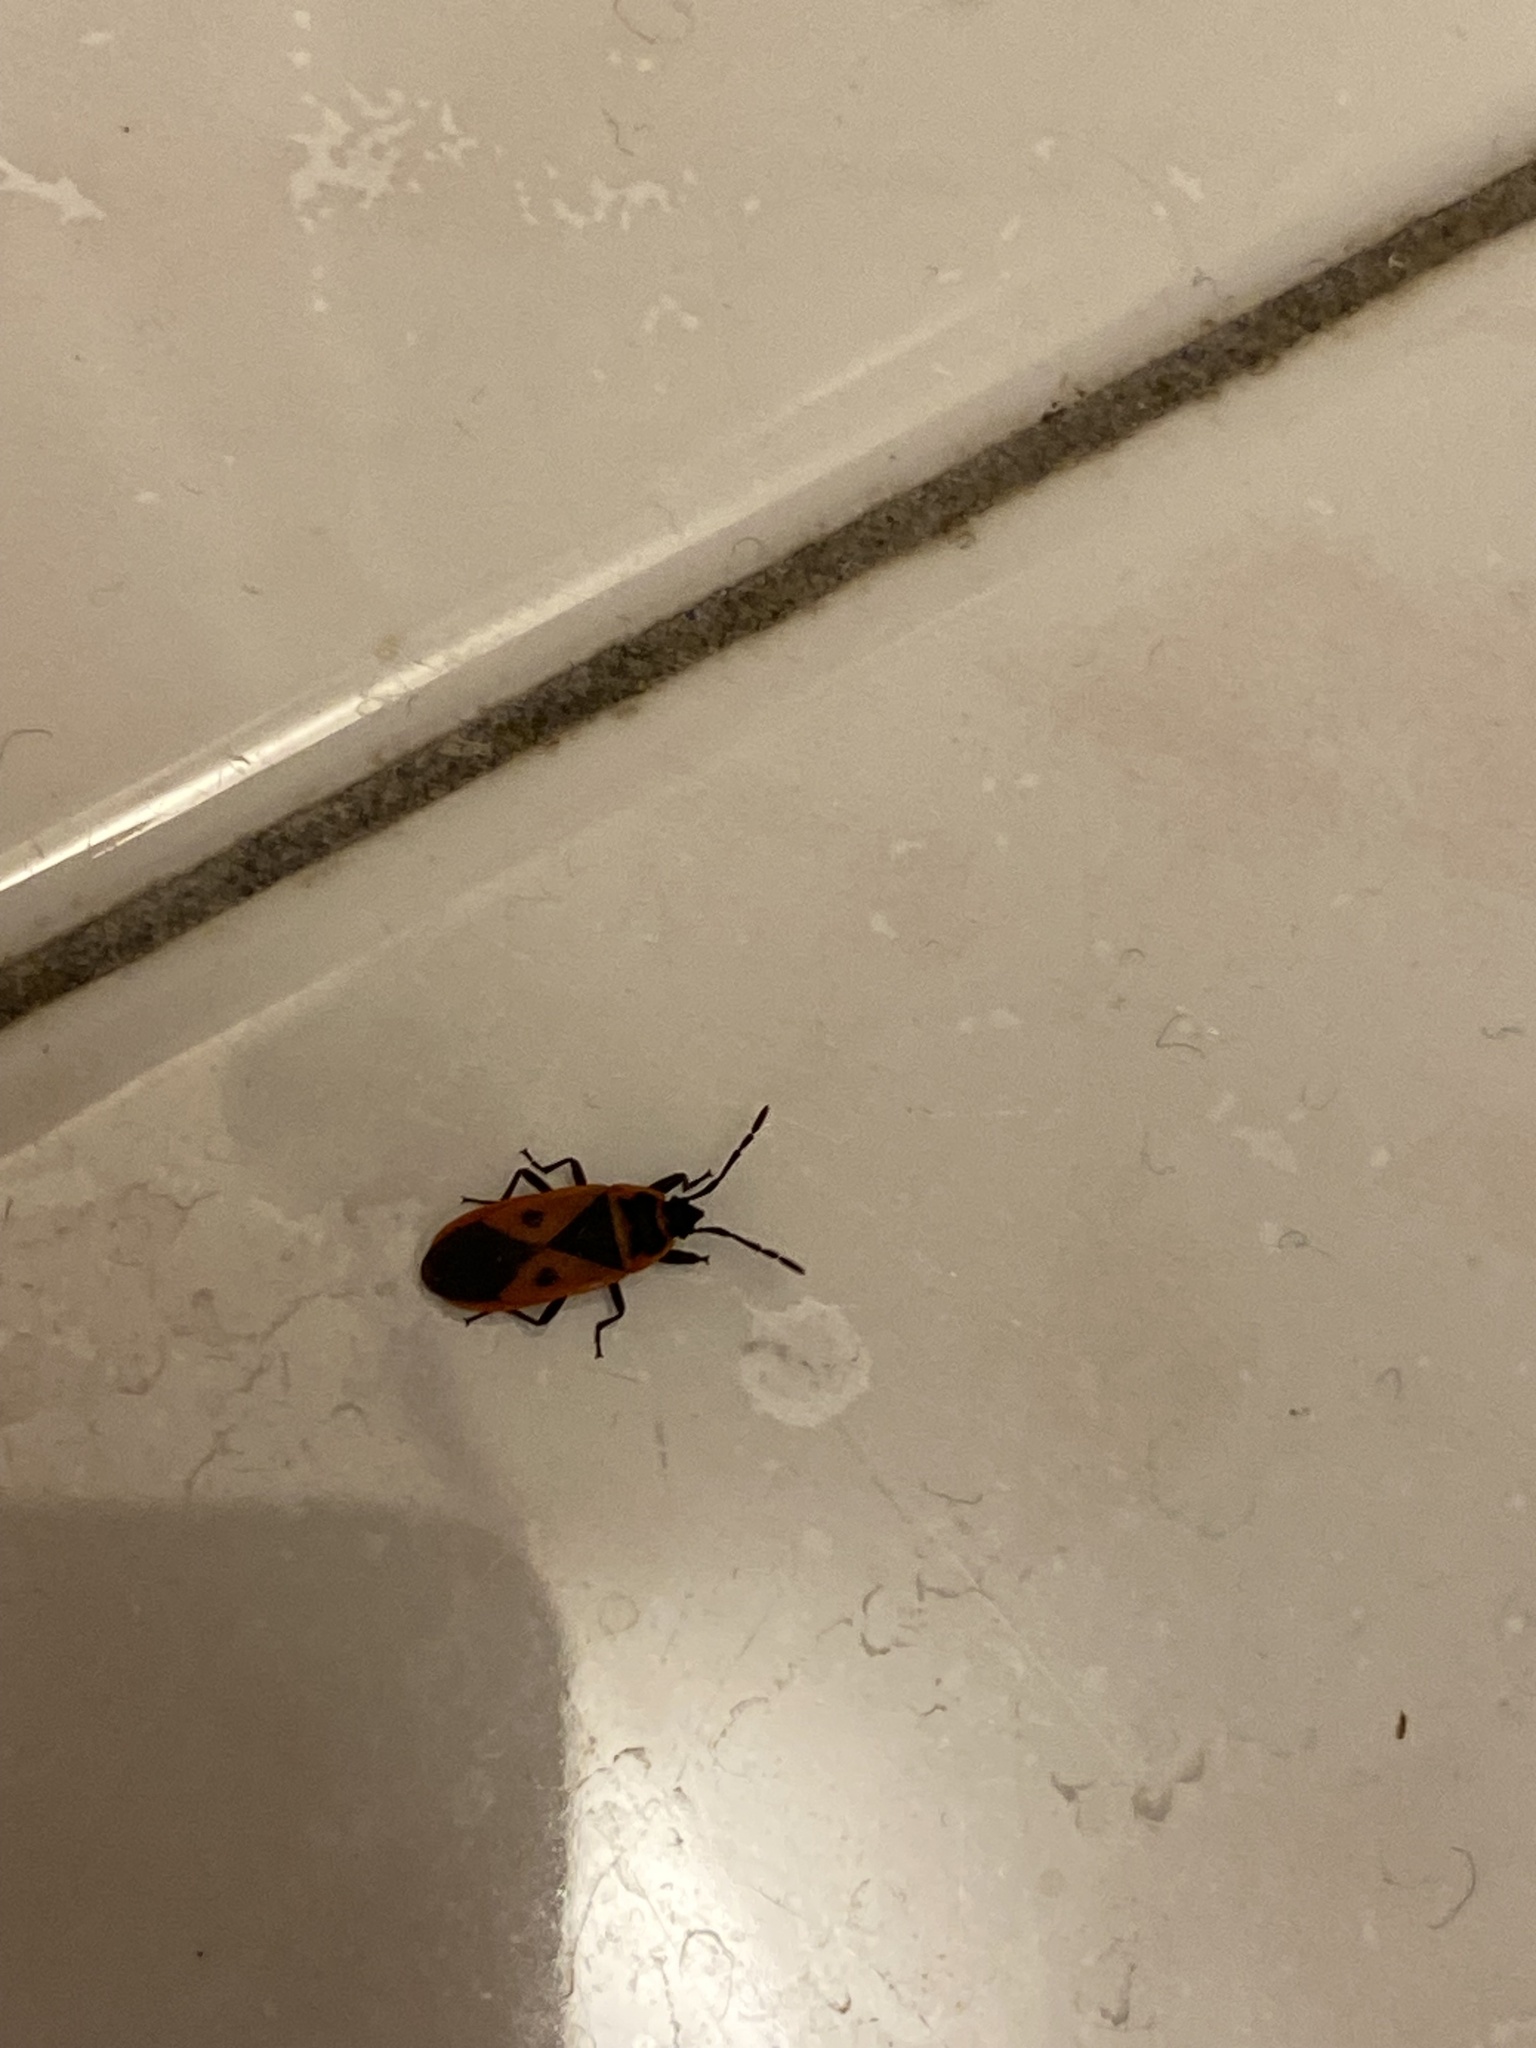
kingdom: Animalia
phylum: Arthropoda
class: Insecta
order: Hemiptera
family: Pyrrhocoridae
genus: Scantius
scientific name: Scantius aegyptius
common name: Red bug
